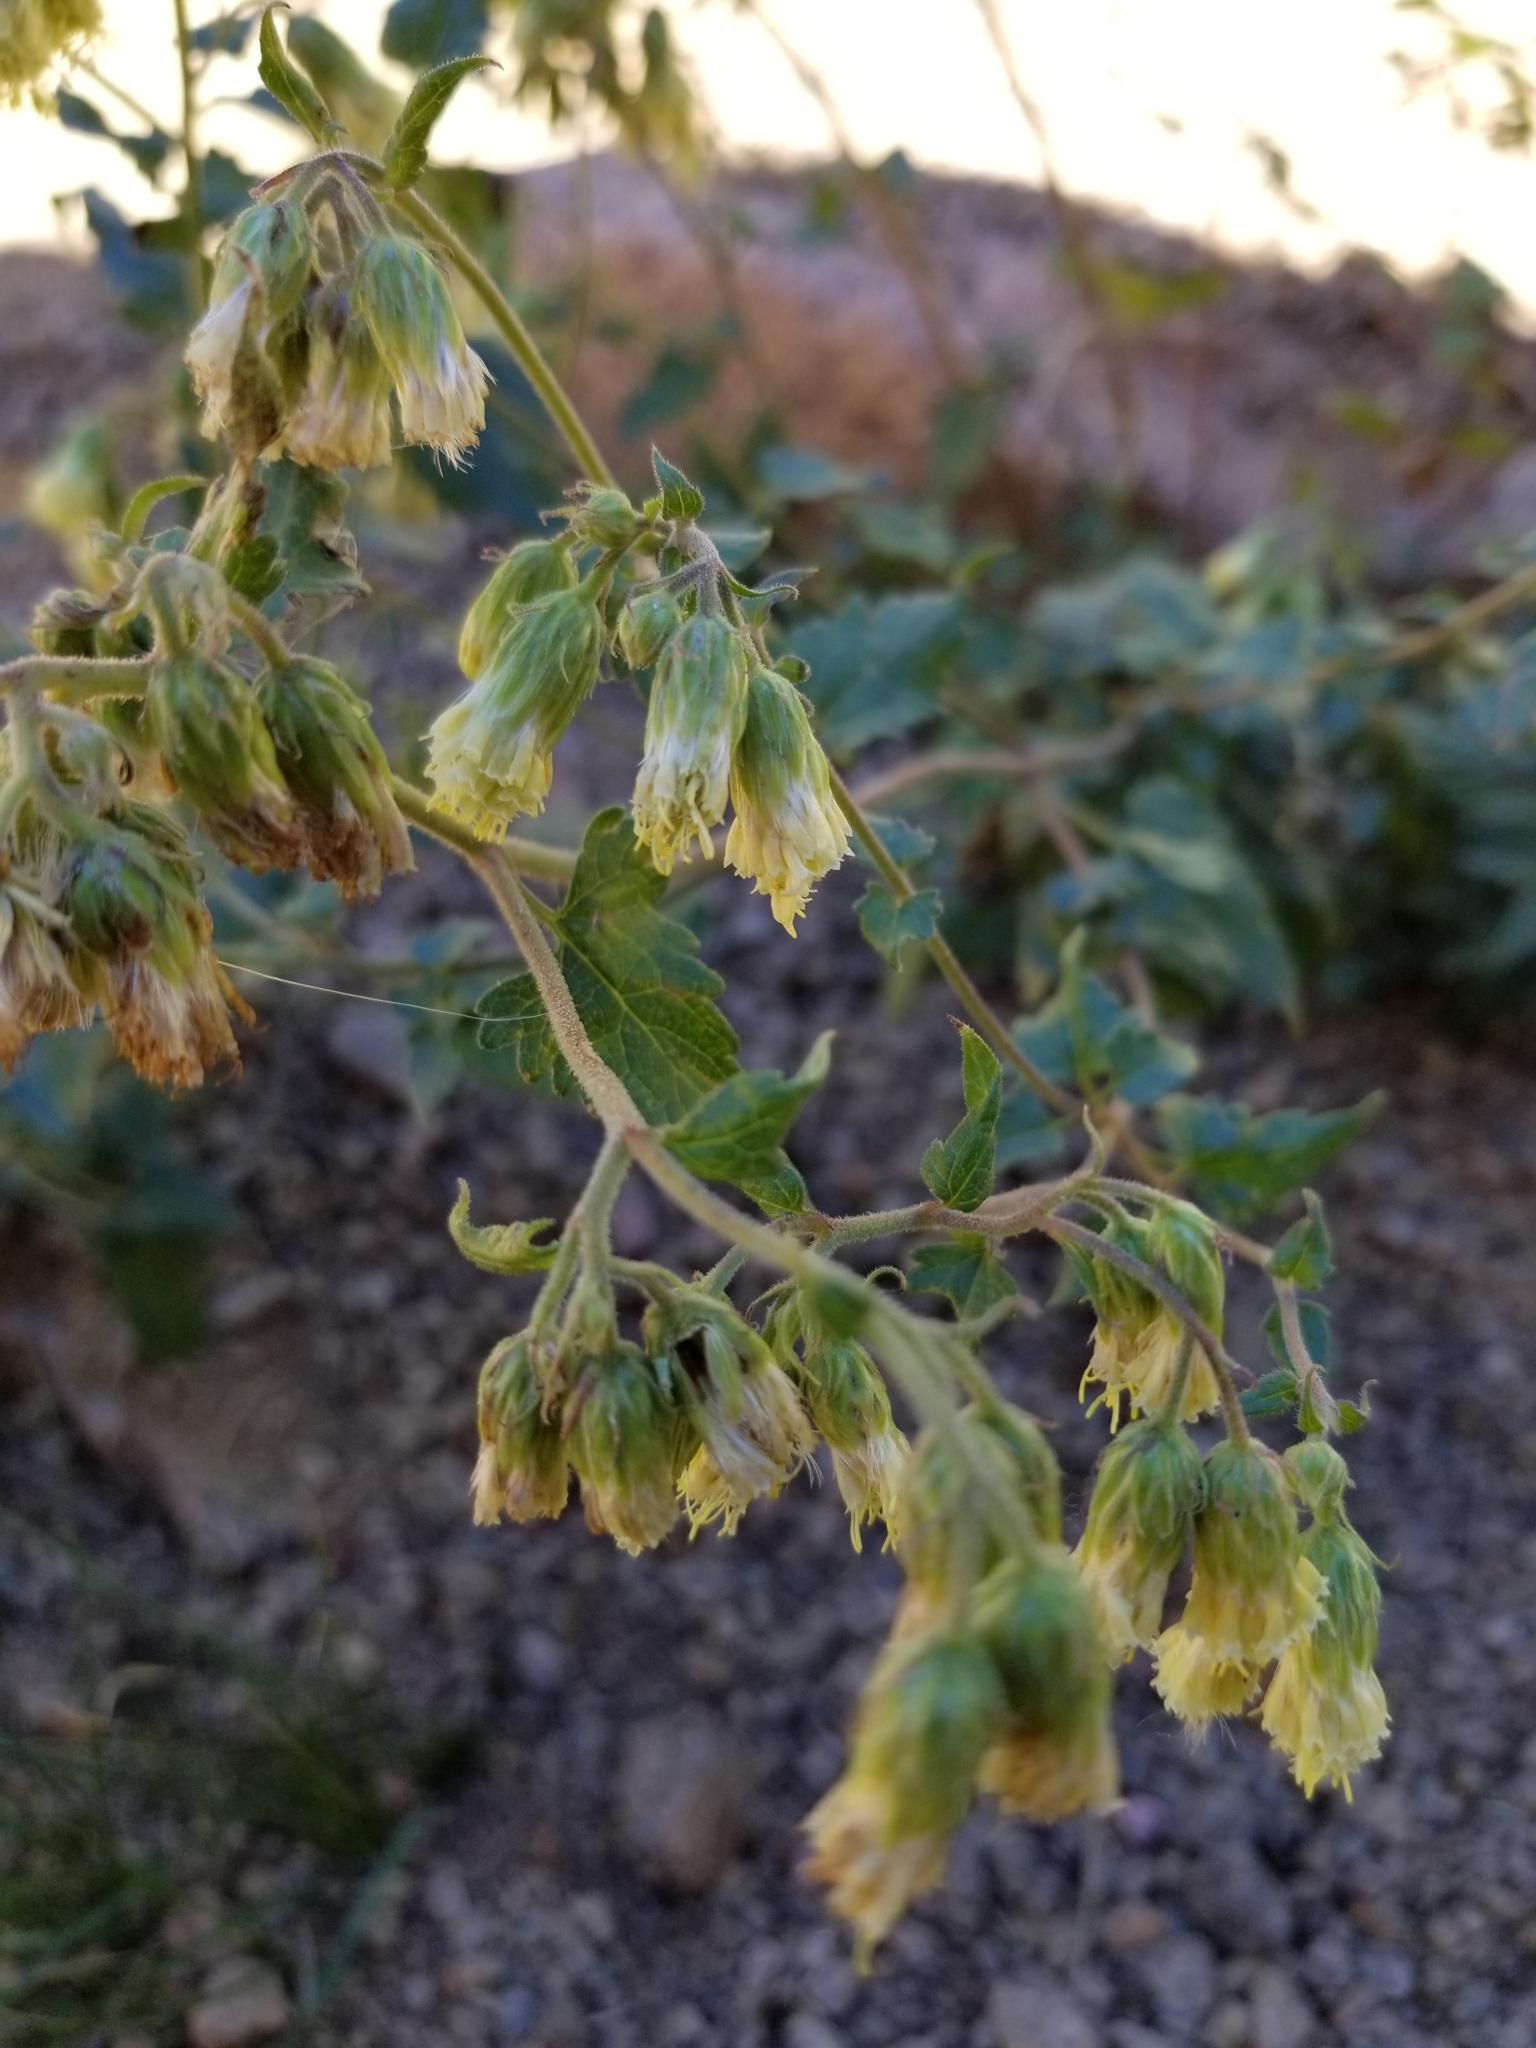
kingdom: Plantae
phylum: Tracheophyta
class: Magnoliopsida
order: Asterales
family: Asteraceae
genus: Brickellia
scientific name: Brickellia grandiflora
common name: Large-flowered brickellia
